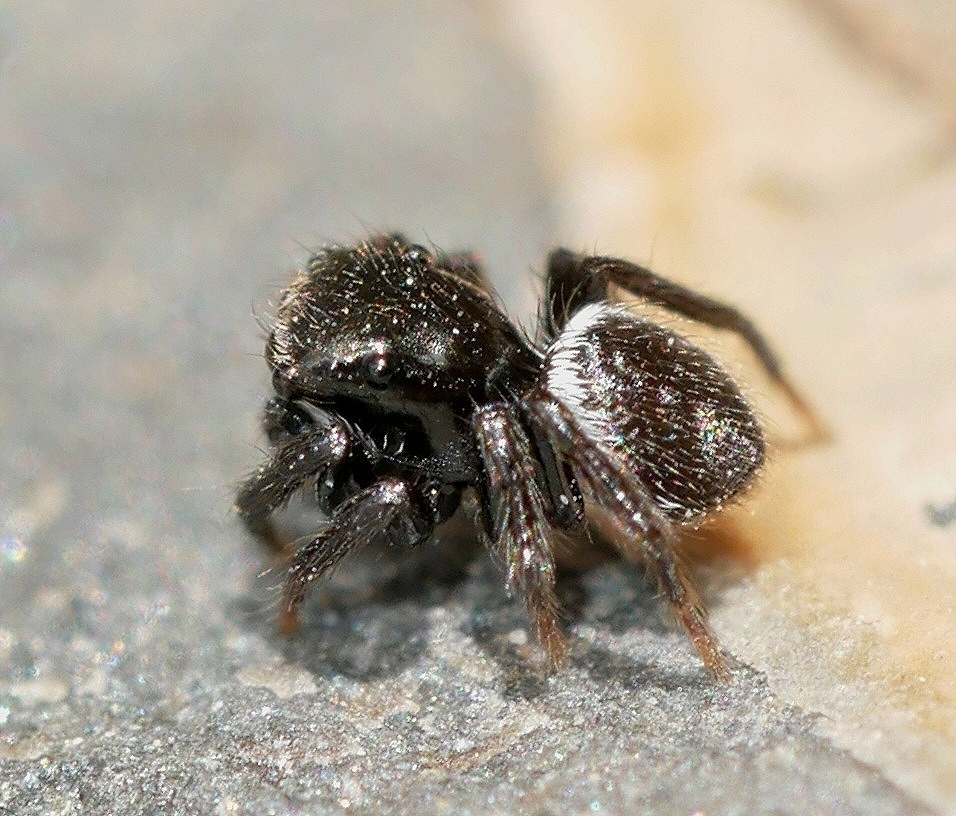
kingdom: Animalia
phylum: Arthropoda
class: Arachnida
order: Araneae
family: Salticidae
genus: Chalcoscirtus
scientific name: Chalcoscirtus diminutus
